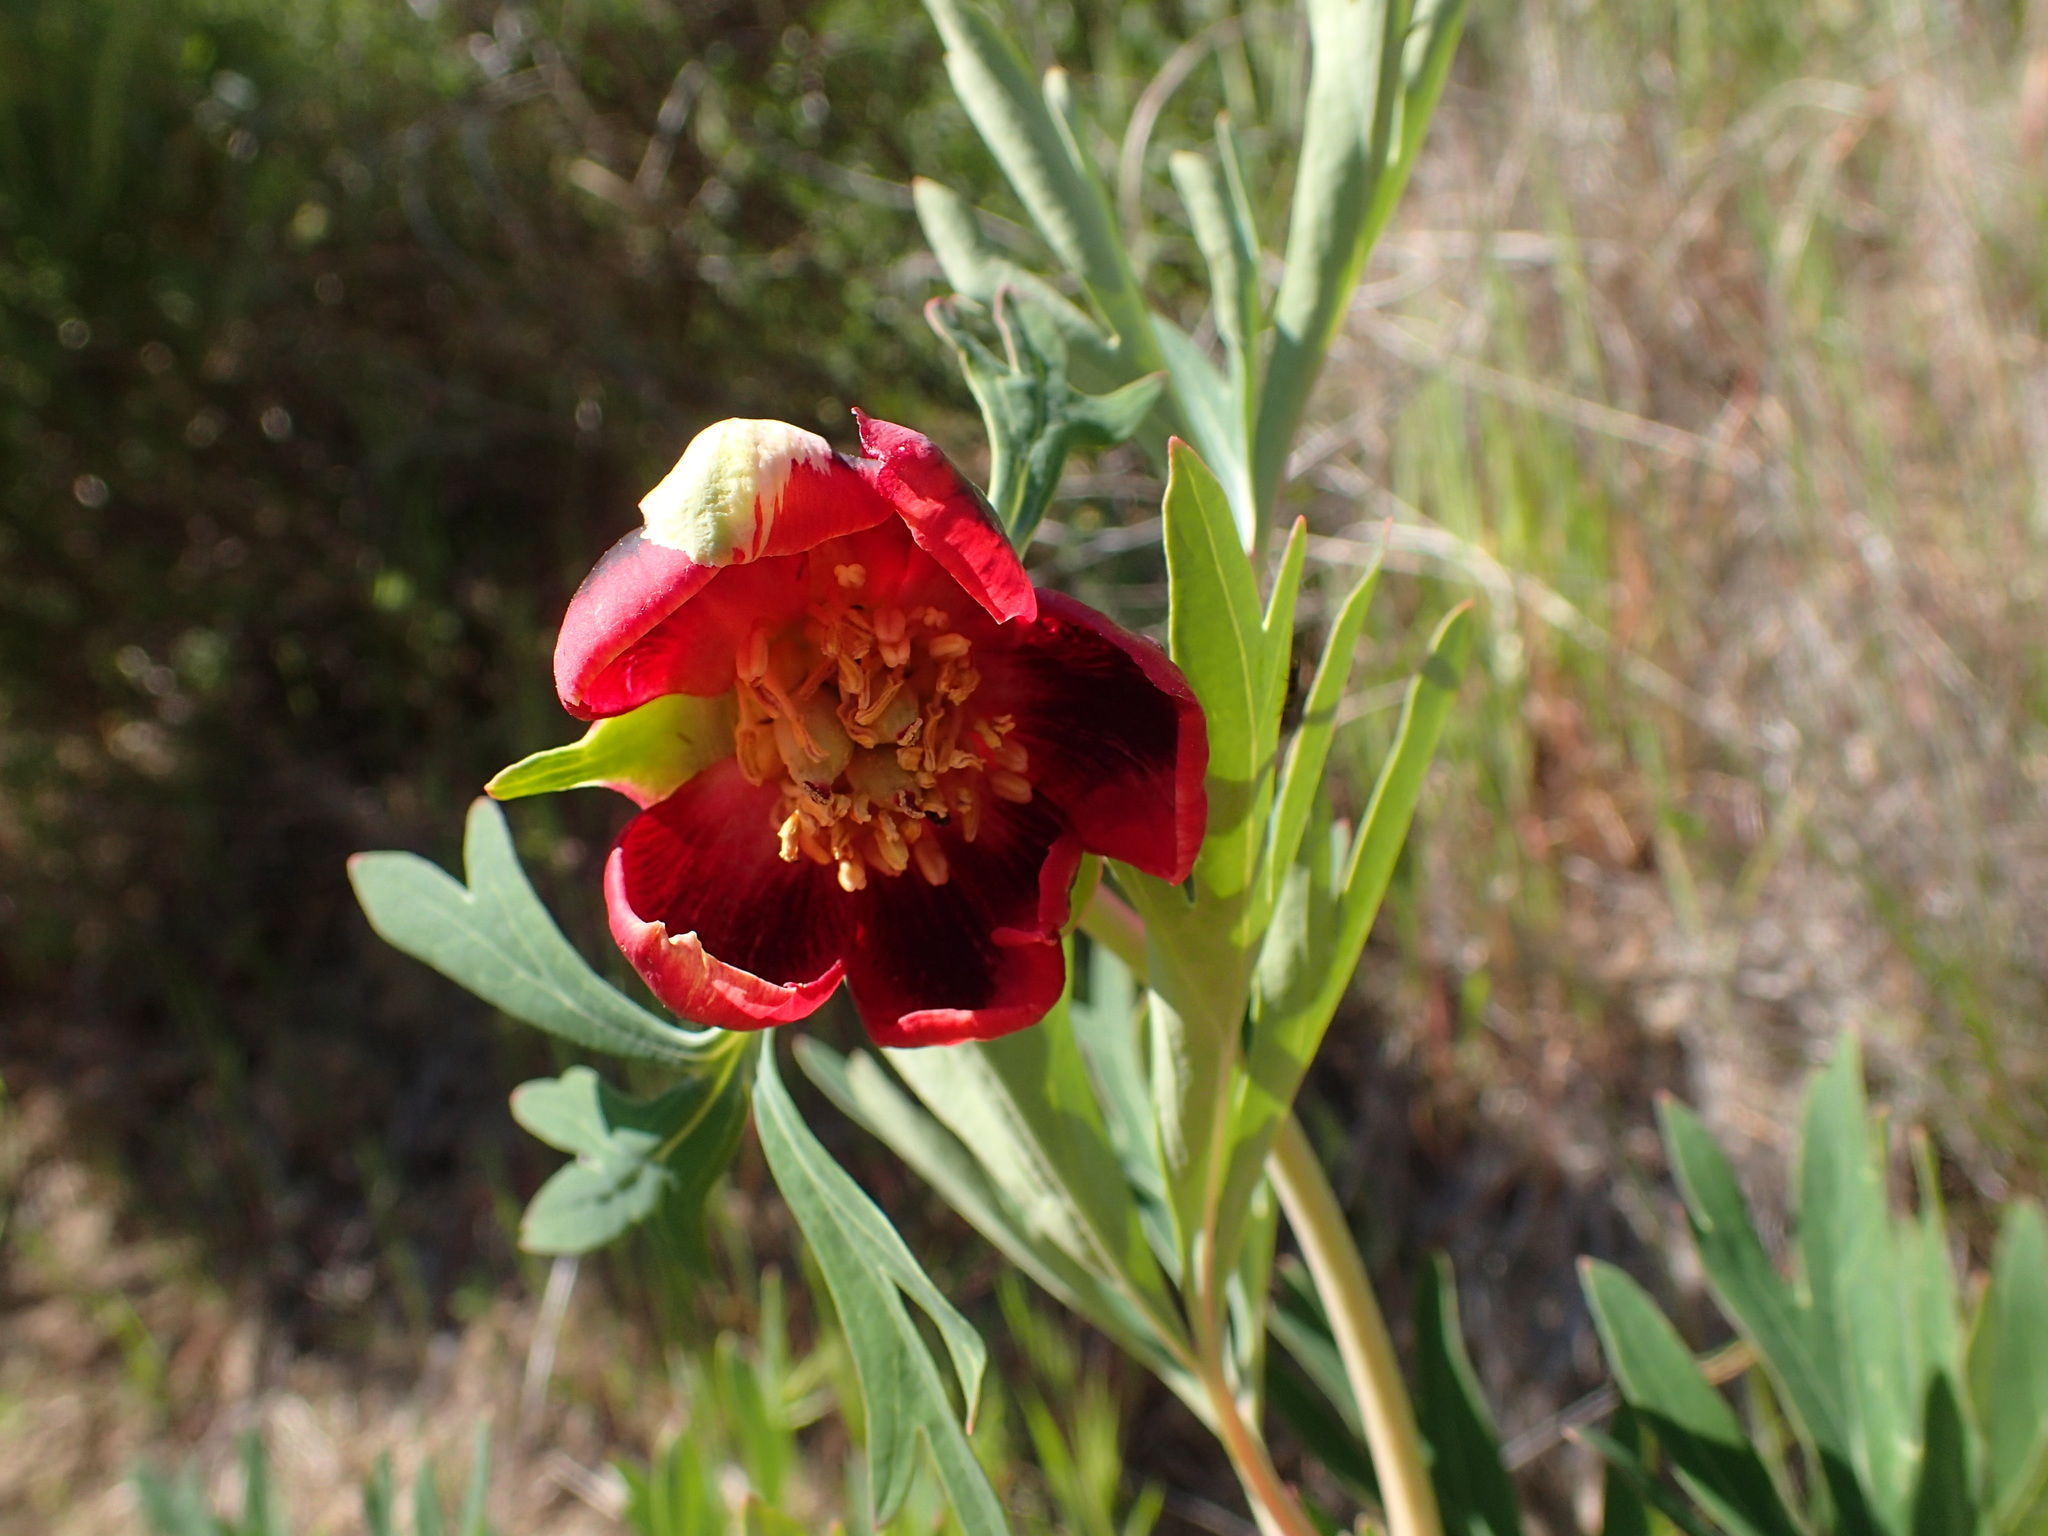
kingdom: Plantae
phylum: Tracheophyta
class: Magnoliopsida
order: Saxifragales
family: Paeoniaceae
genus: Paeonia
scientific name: Paeonia californica
